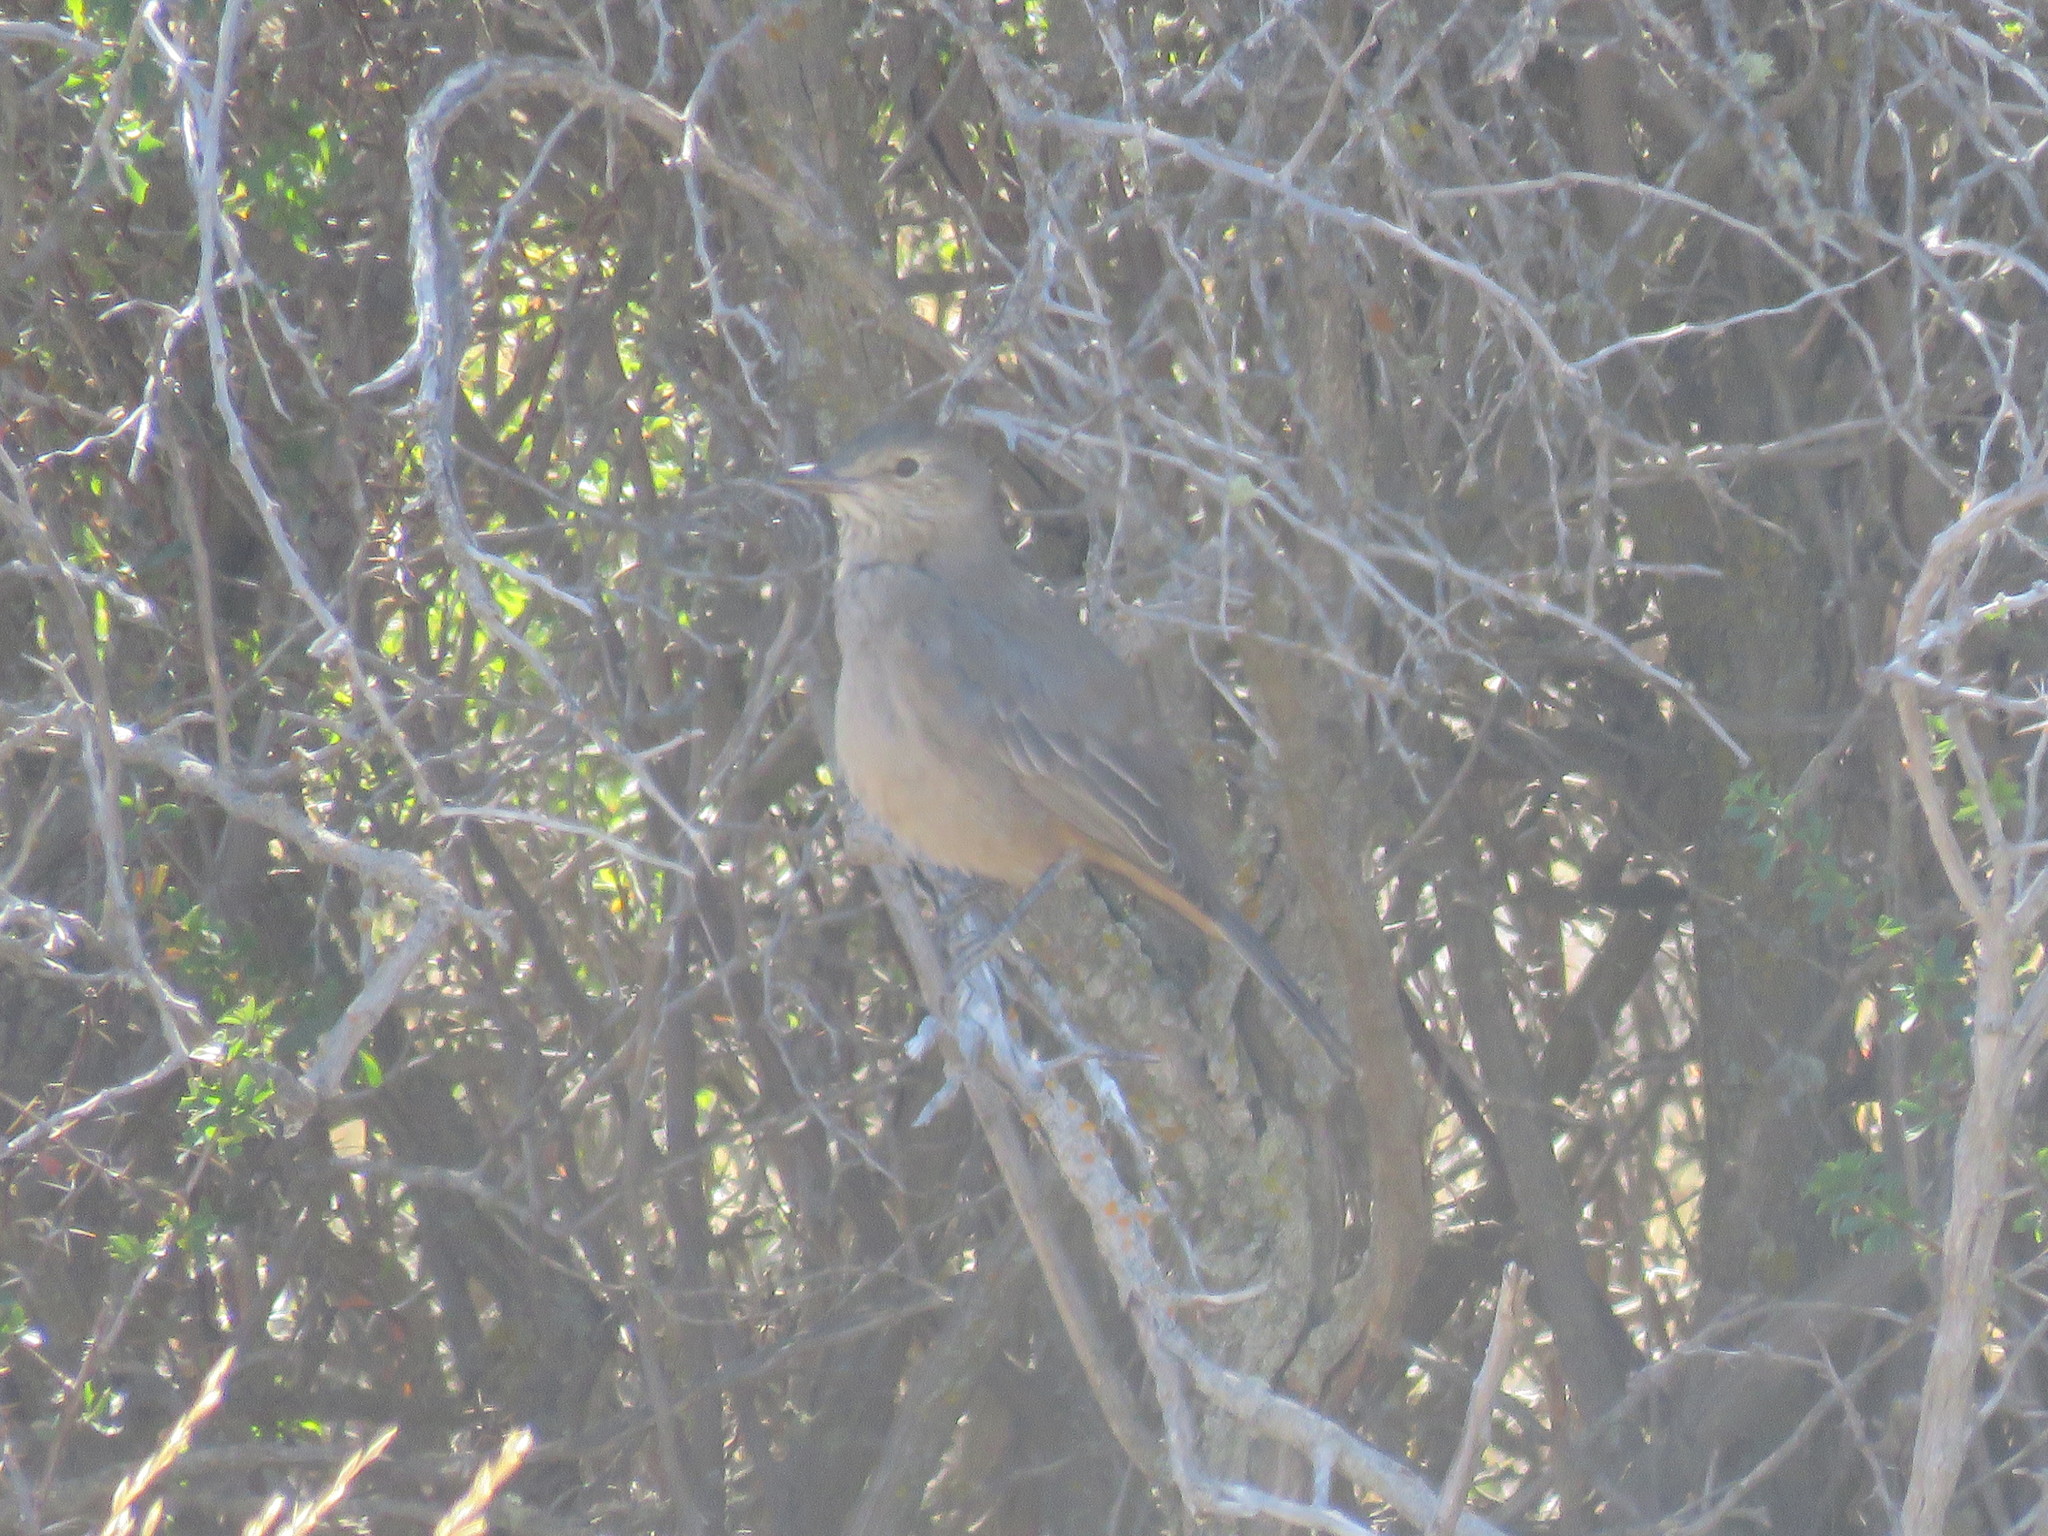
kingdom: Animalia
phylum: Chordata
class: Aves
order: Passeriformes
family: Tyrannidae
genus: Agriornis
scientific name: Agriornis lividus
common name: Great shrike-tyrant
